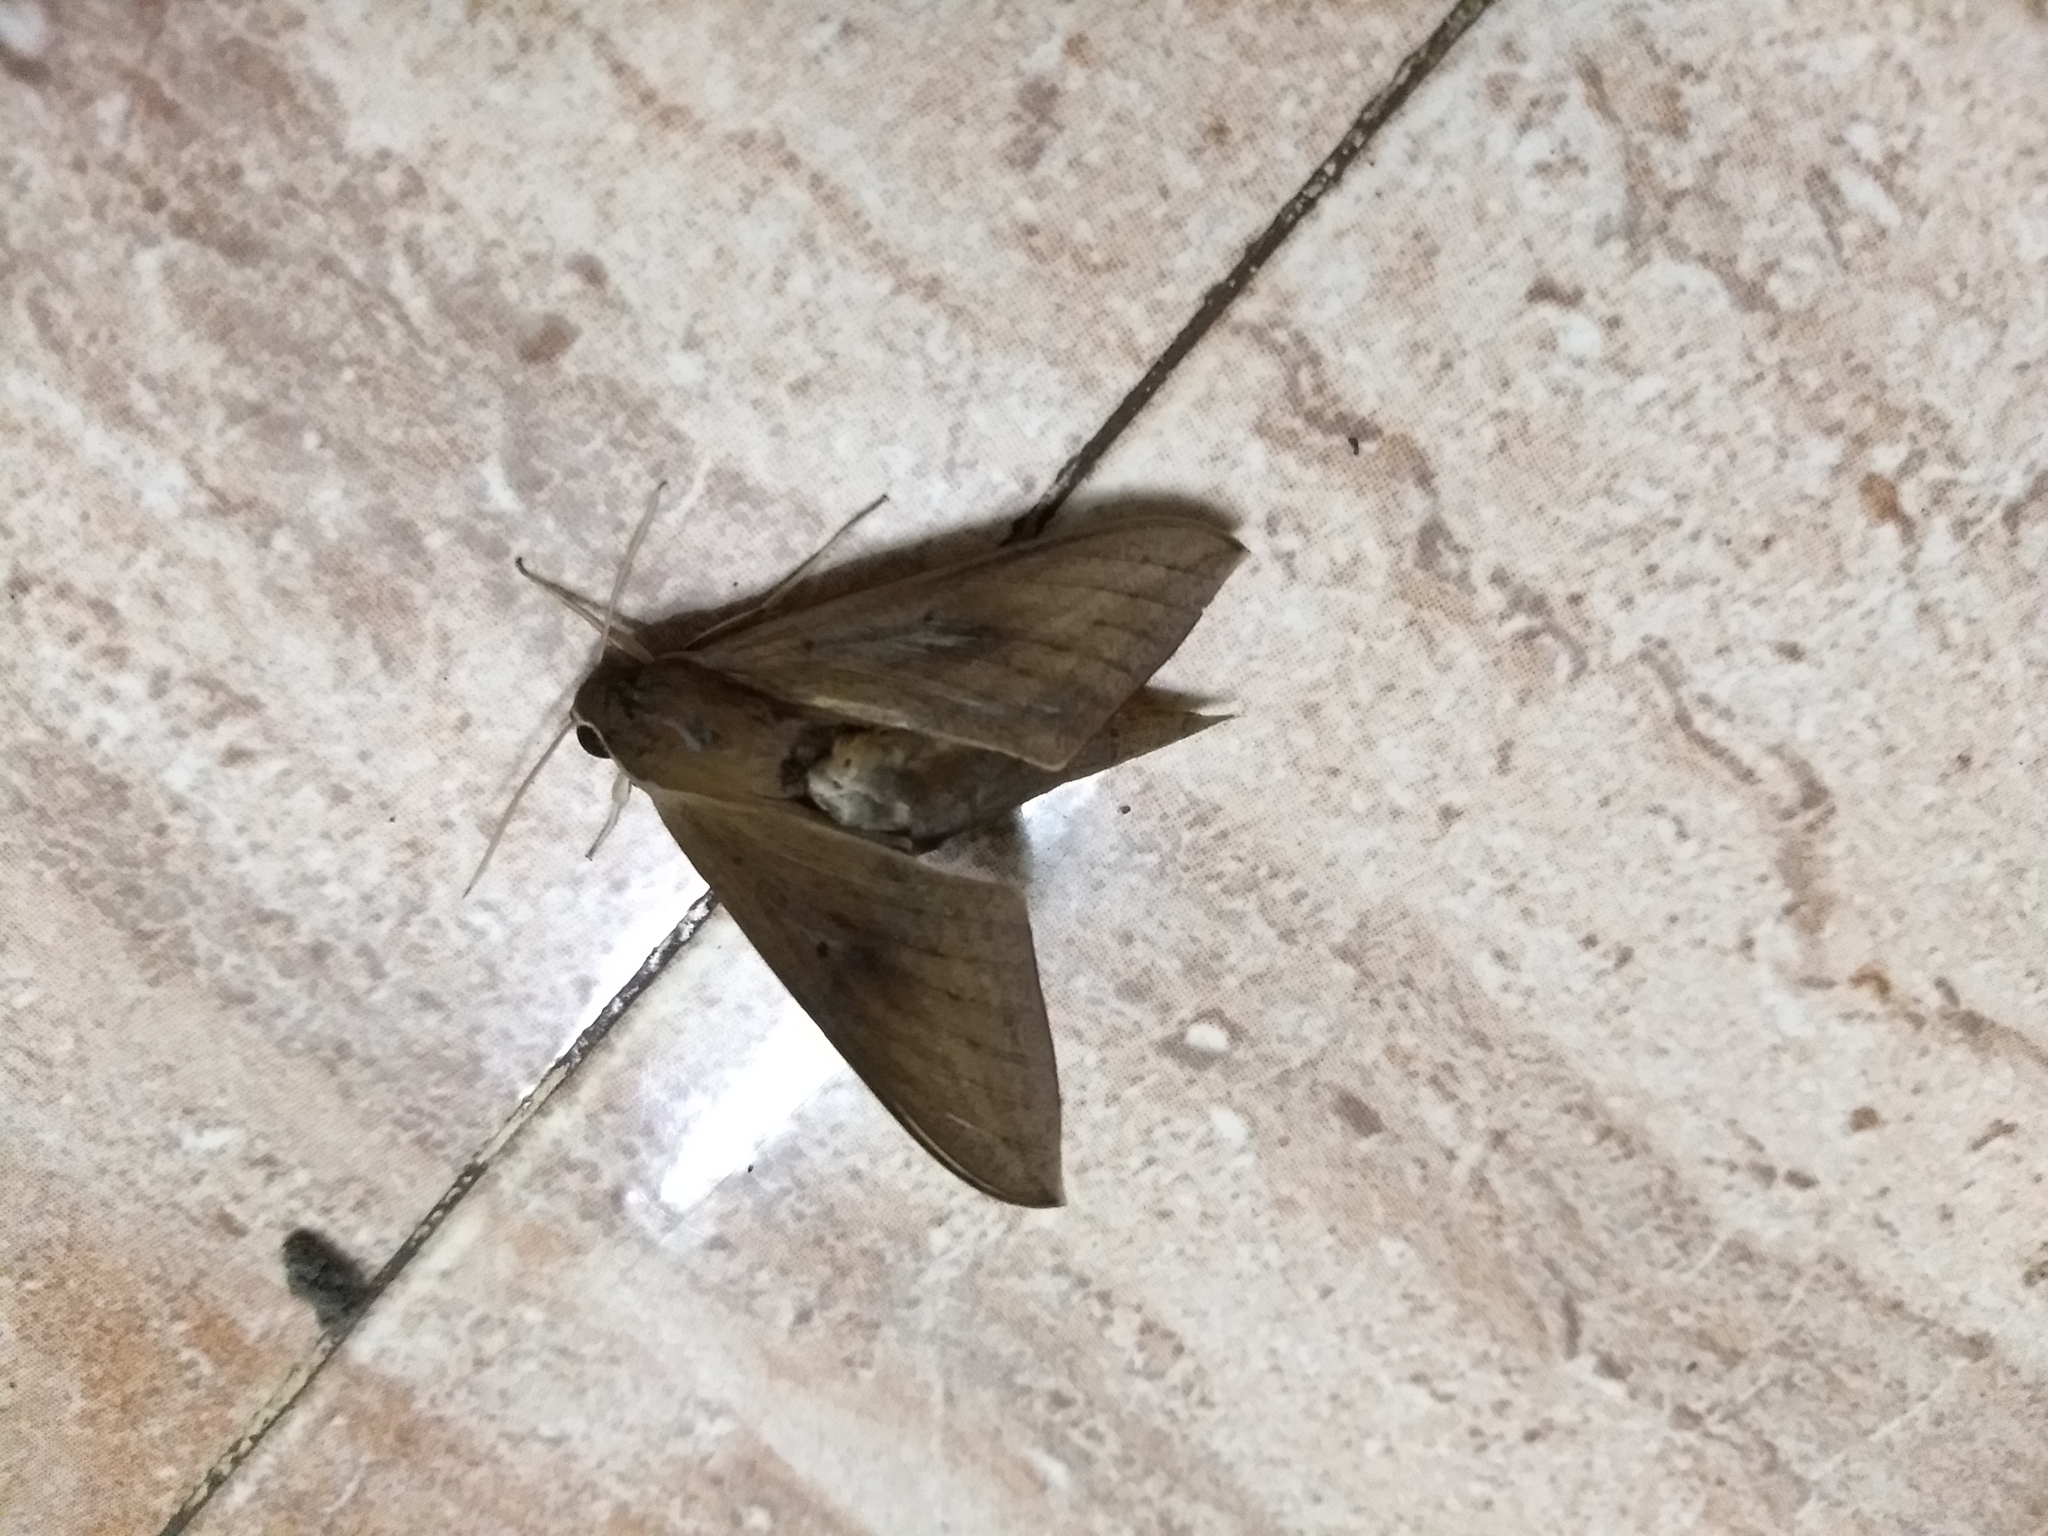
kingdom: Animalia
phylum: Arthropoda
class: Insecta
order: Lepidoptera
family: Sphingidae
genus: Theretra
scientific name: Theretra rhesus
